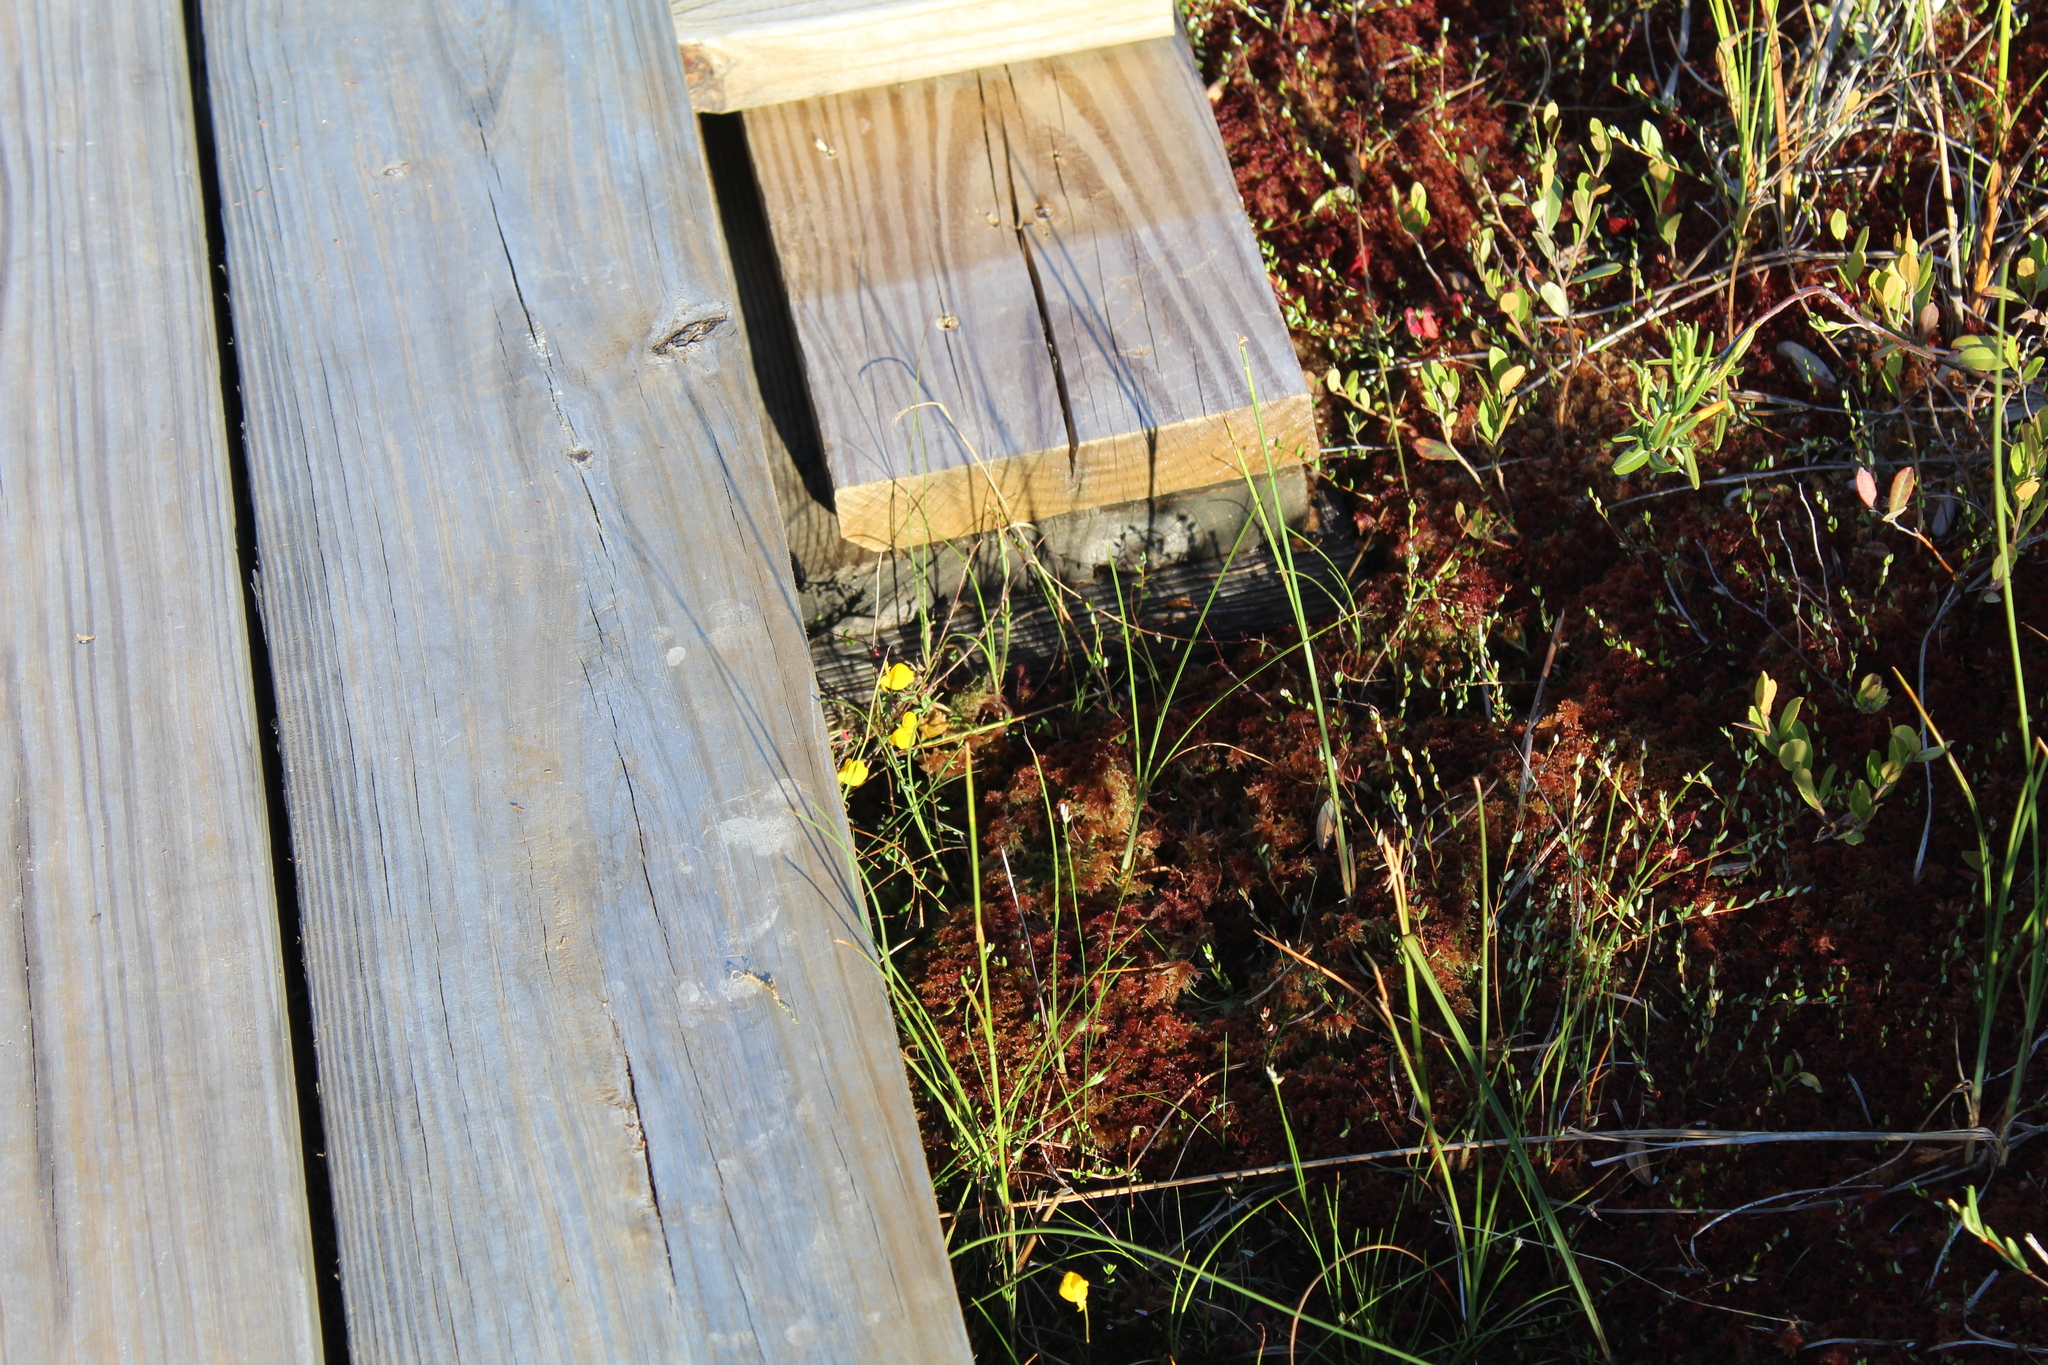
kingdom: Plantae
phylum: Tracheophyta
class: Magnoliopsida
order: Lamiales
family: Lentibulariaceae
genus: Utricularia
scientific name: Utricularia cornuta
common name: Horned bladderwort
